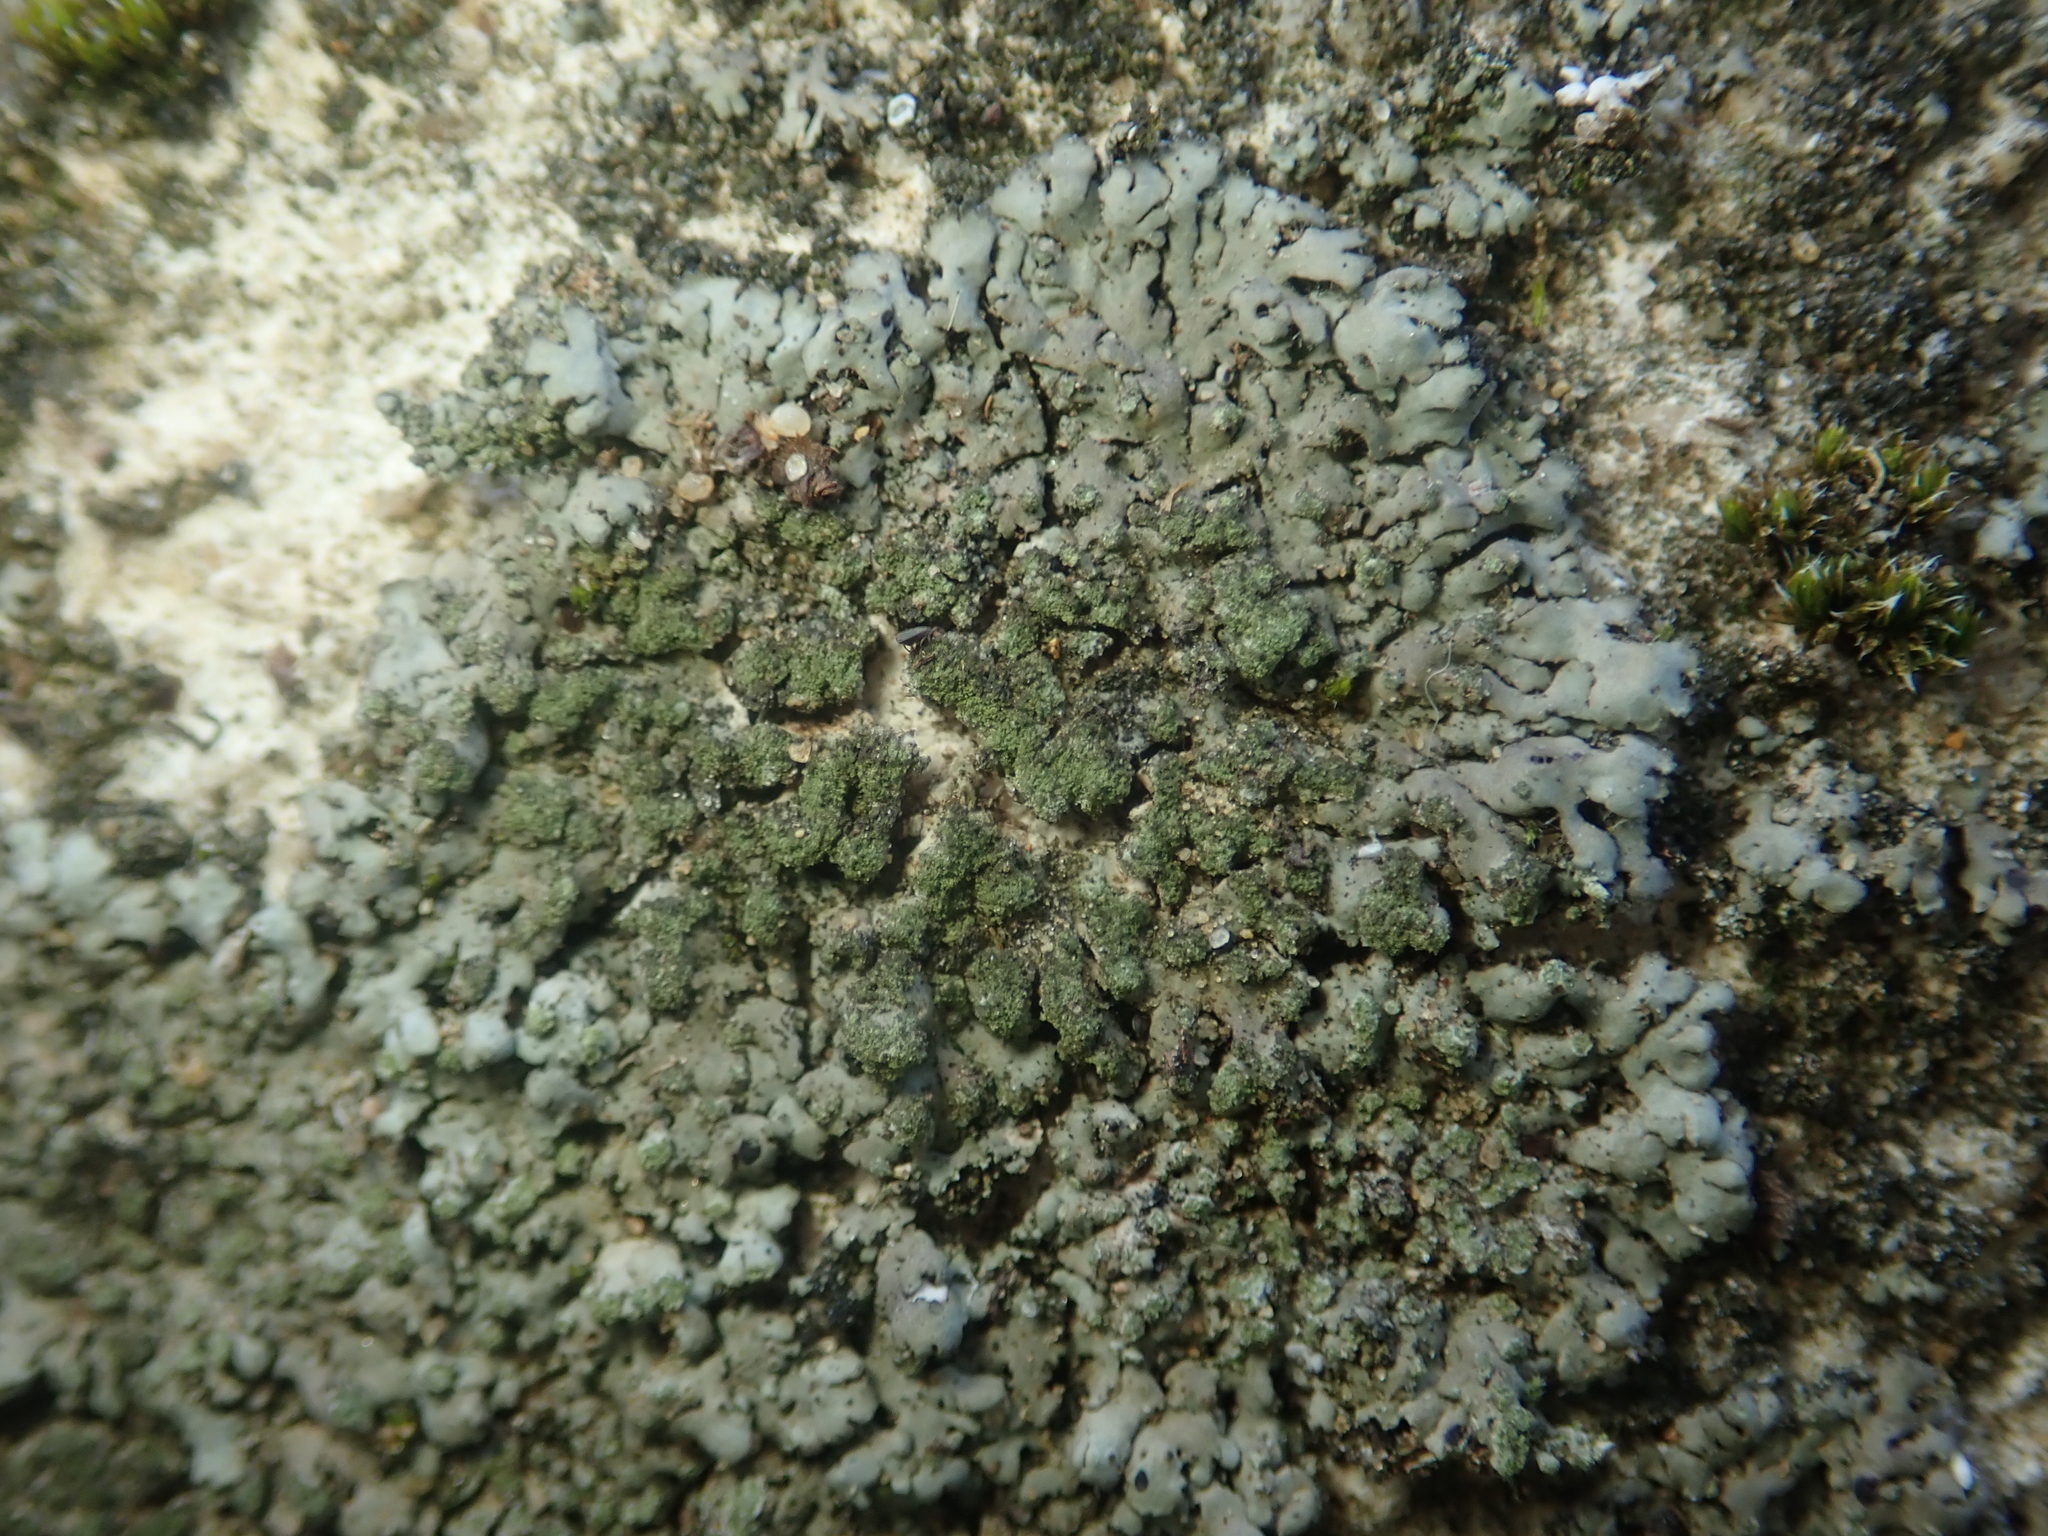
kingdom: Fungi
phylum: Ascomycota
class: Lecanoromycetes
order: Caliciales
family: Physciaceae
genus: Phaeophyscia
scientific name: Phaeophyscia orbicularis
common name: Mealy shadow lichen
